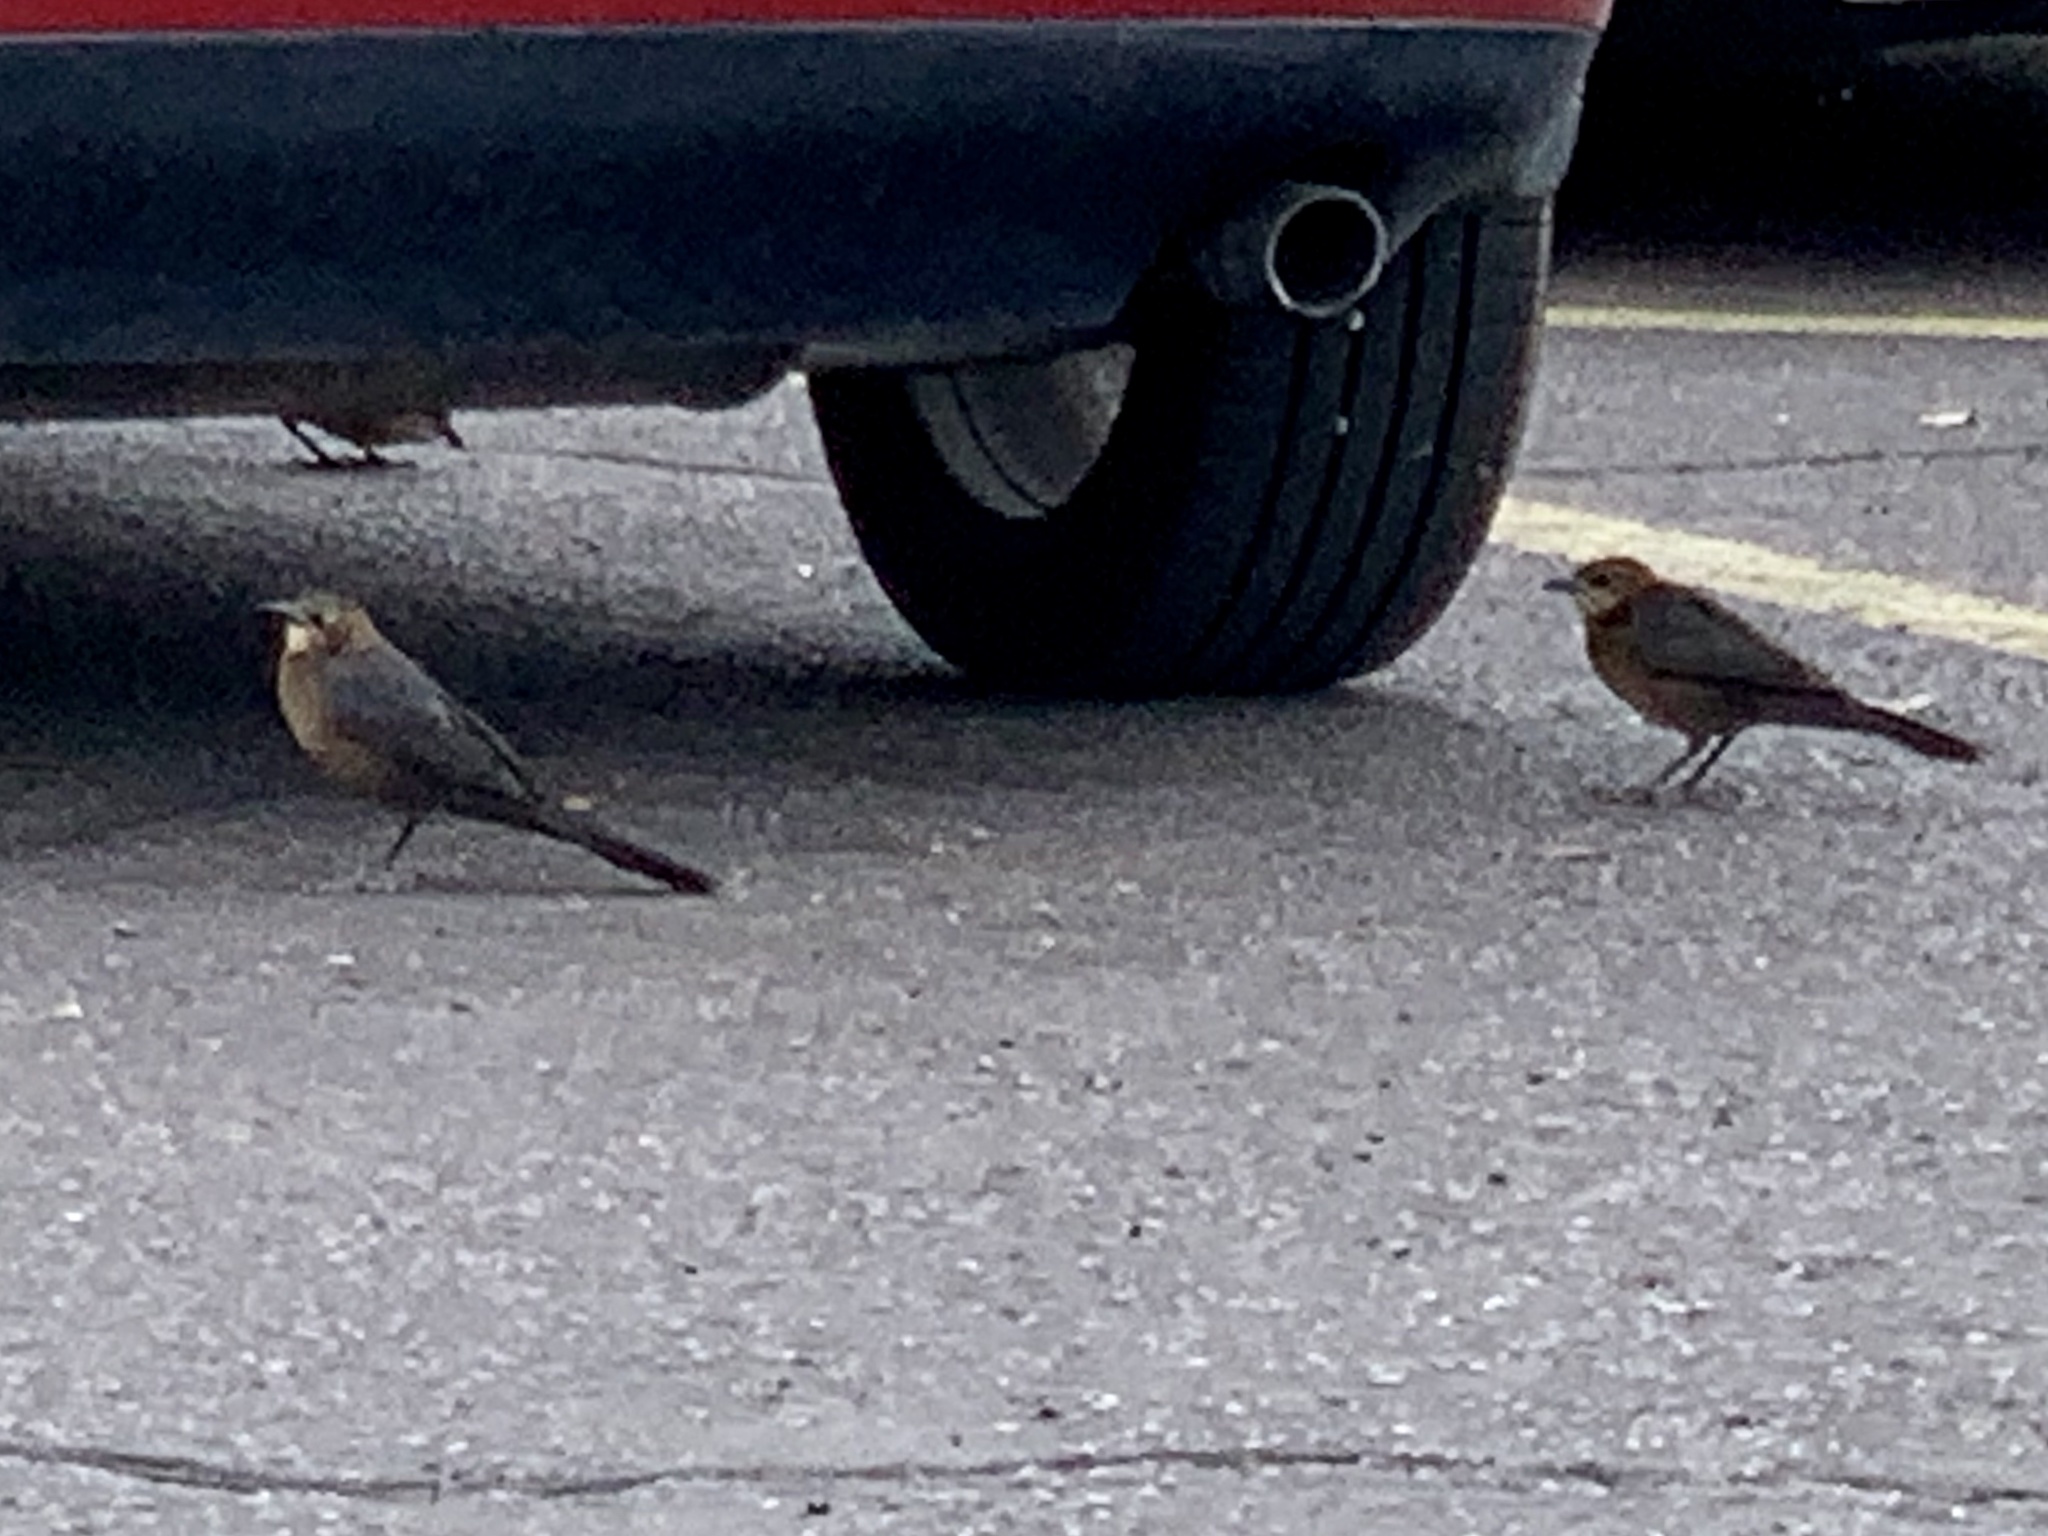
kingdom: Animalia
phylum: Chordata
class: Aves
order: Passeriformes
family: Icteridae
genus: Euphagus
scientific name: Euphagus cyanocephalus
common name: Brewer's blackbird
